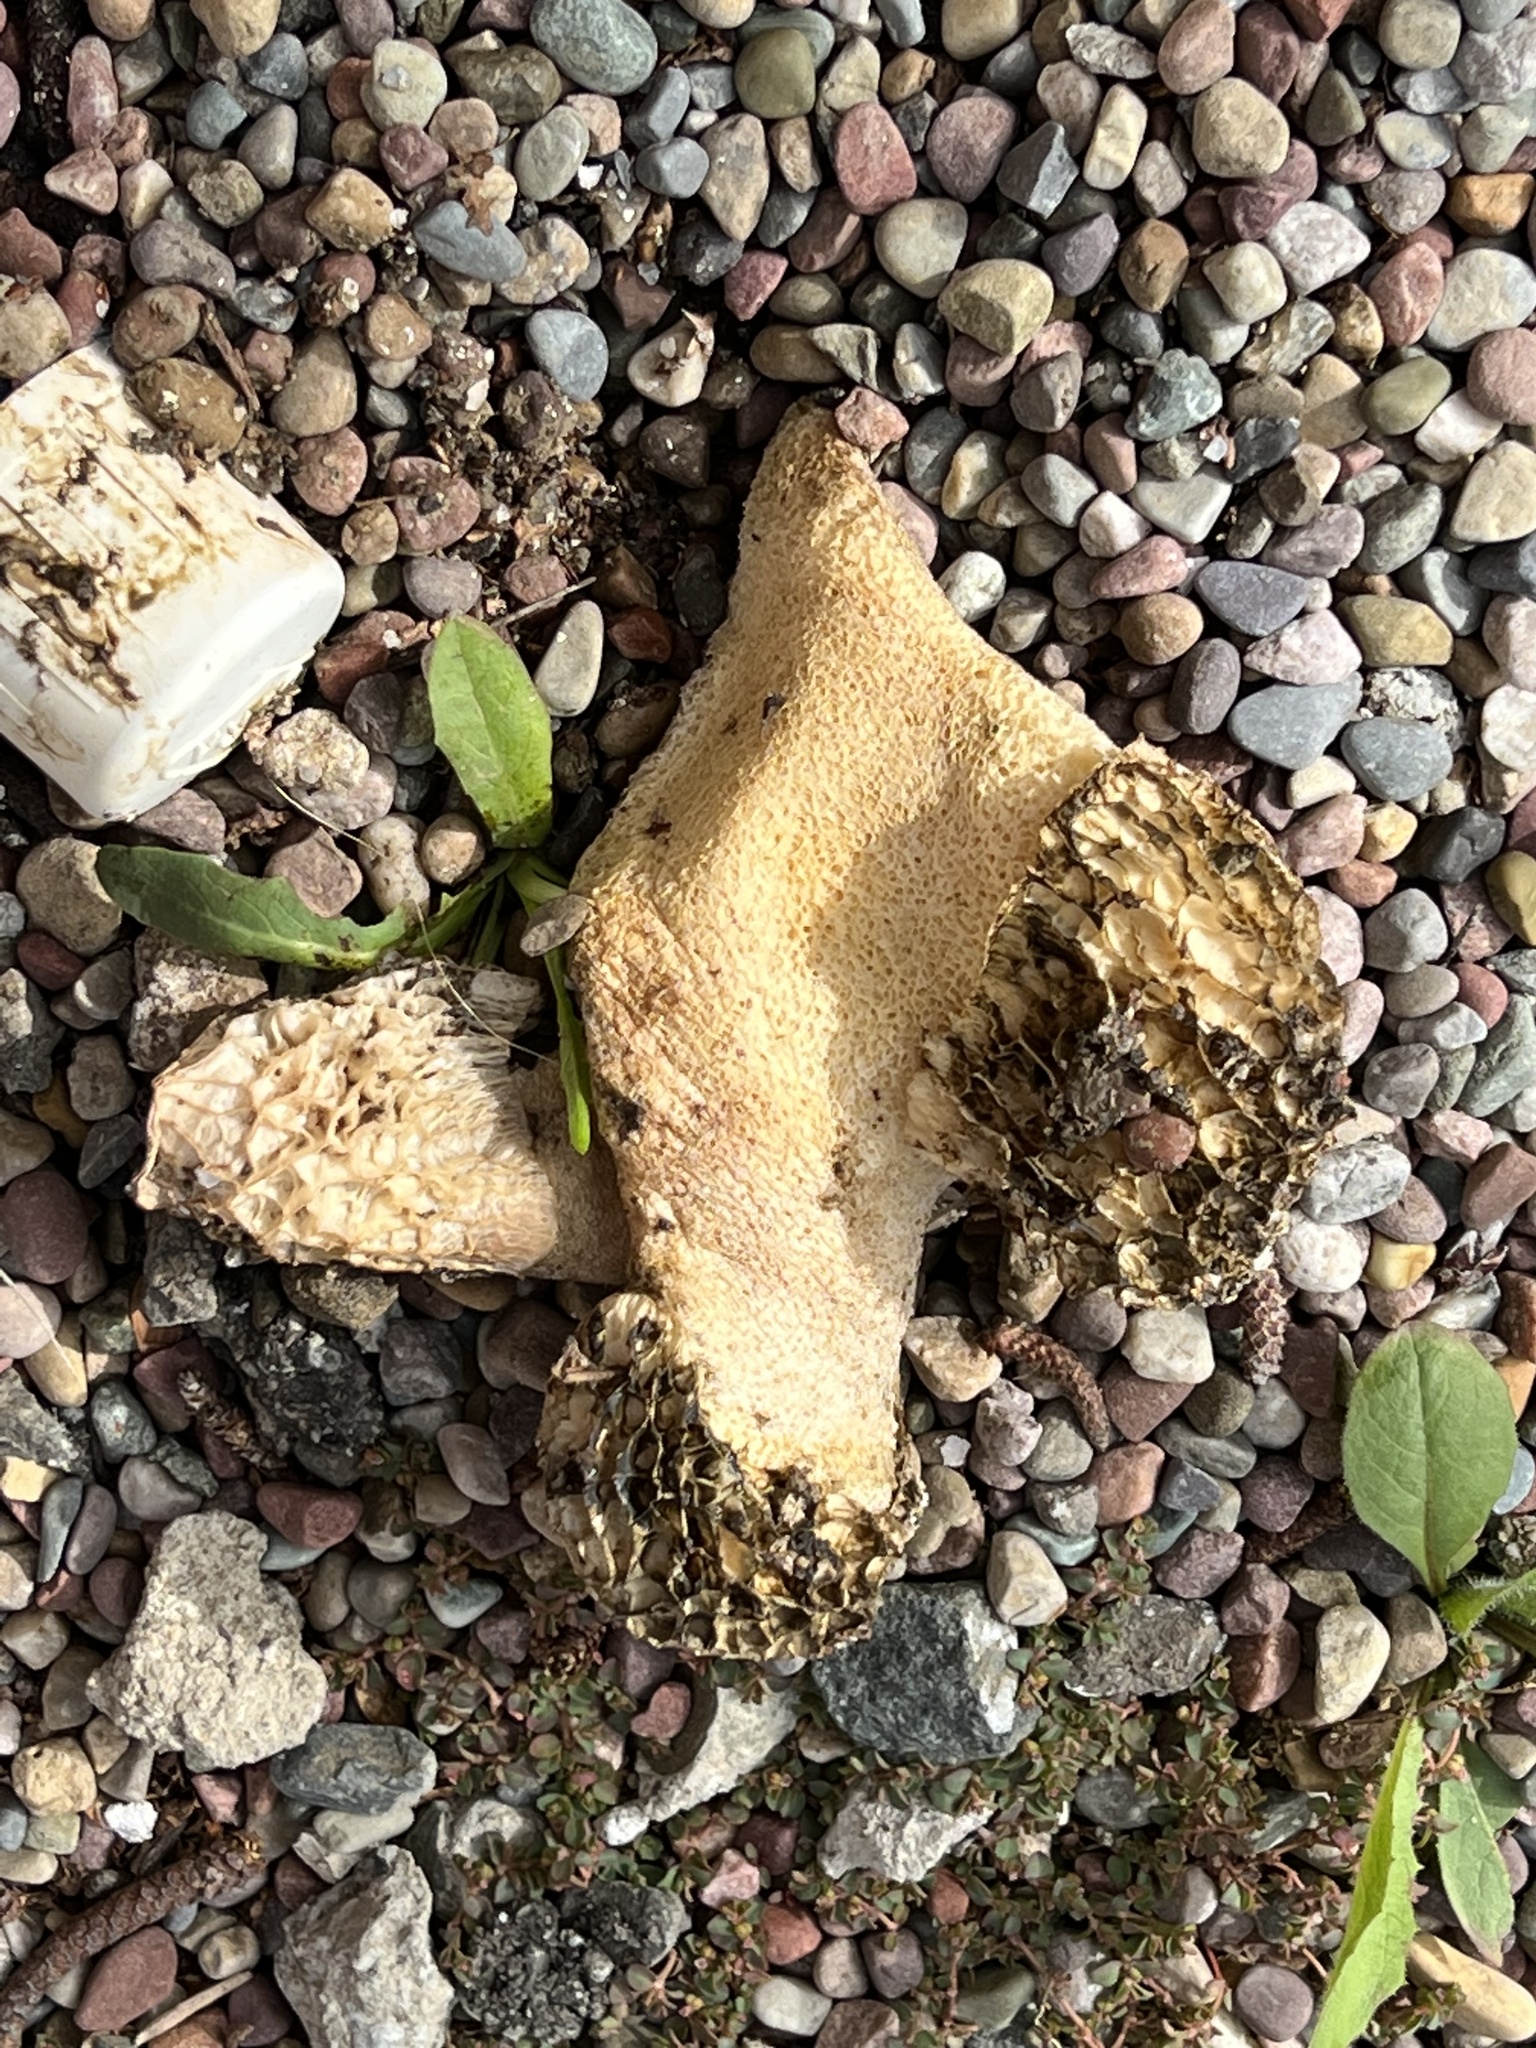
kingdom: Fungi
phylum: Basidiomycota
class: Agaricomycetes
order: Phallales
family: Phallaceae
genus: Phallus
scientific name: Phallus hadriani
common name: Sand stinkhorn
